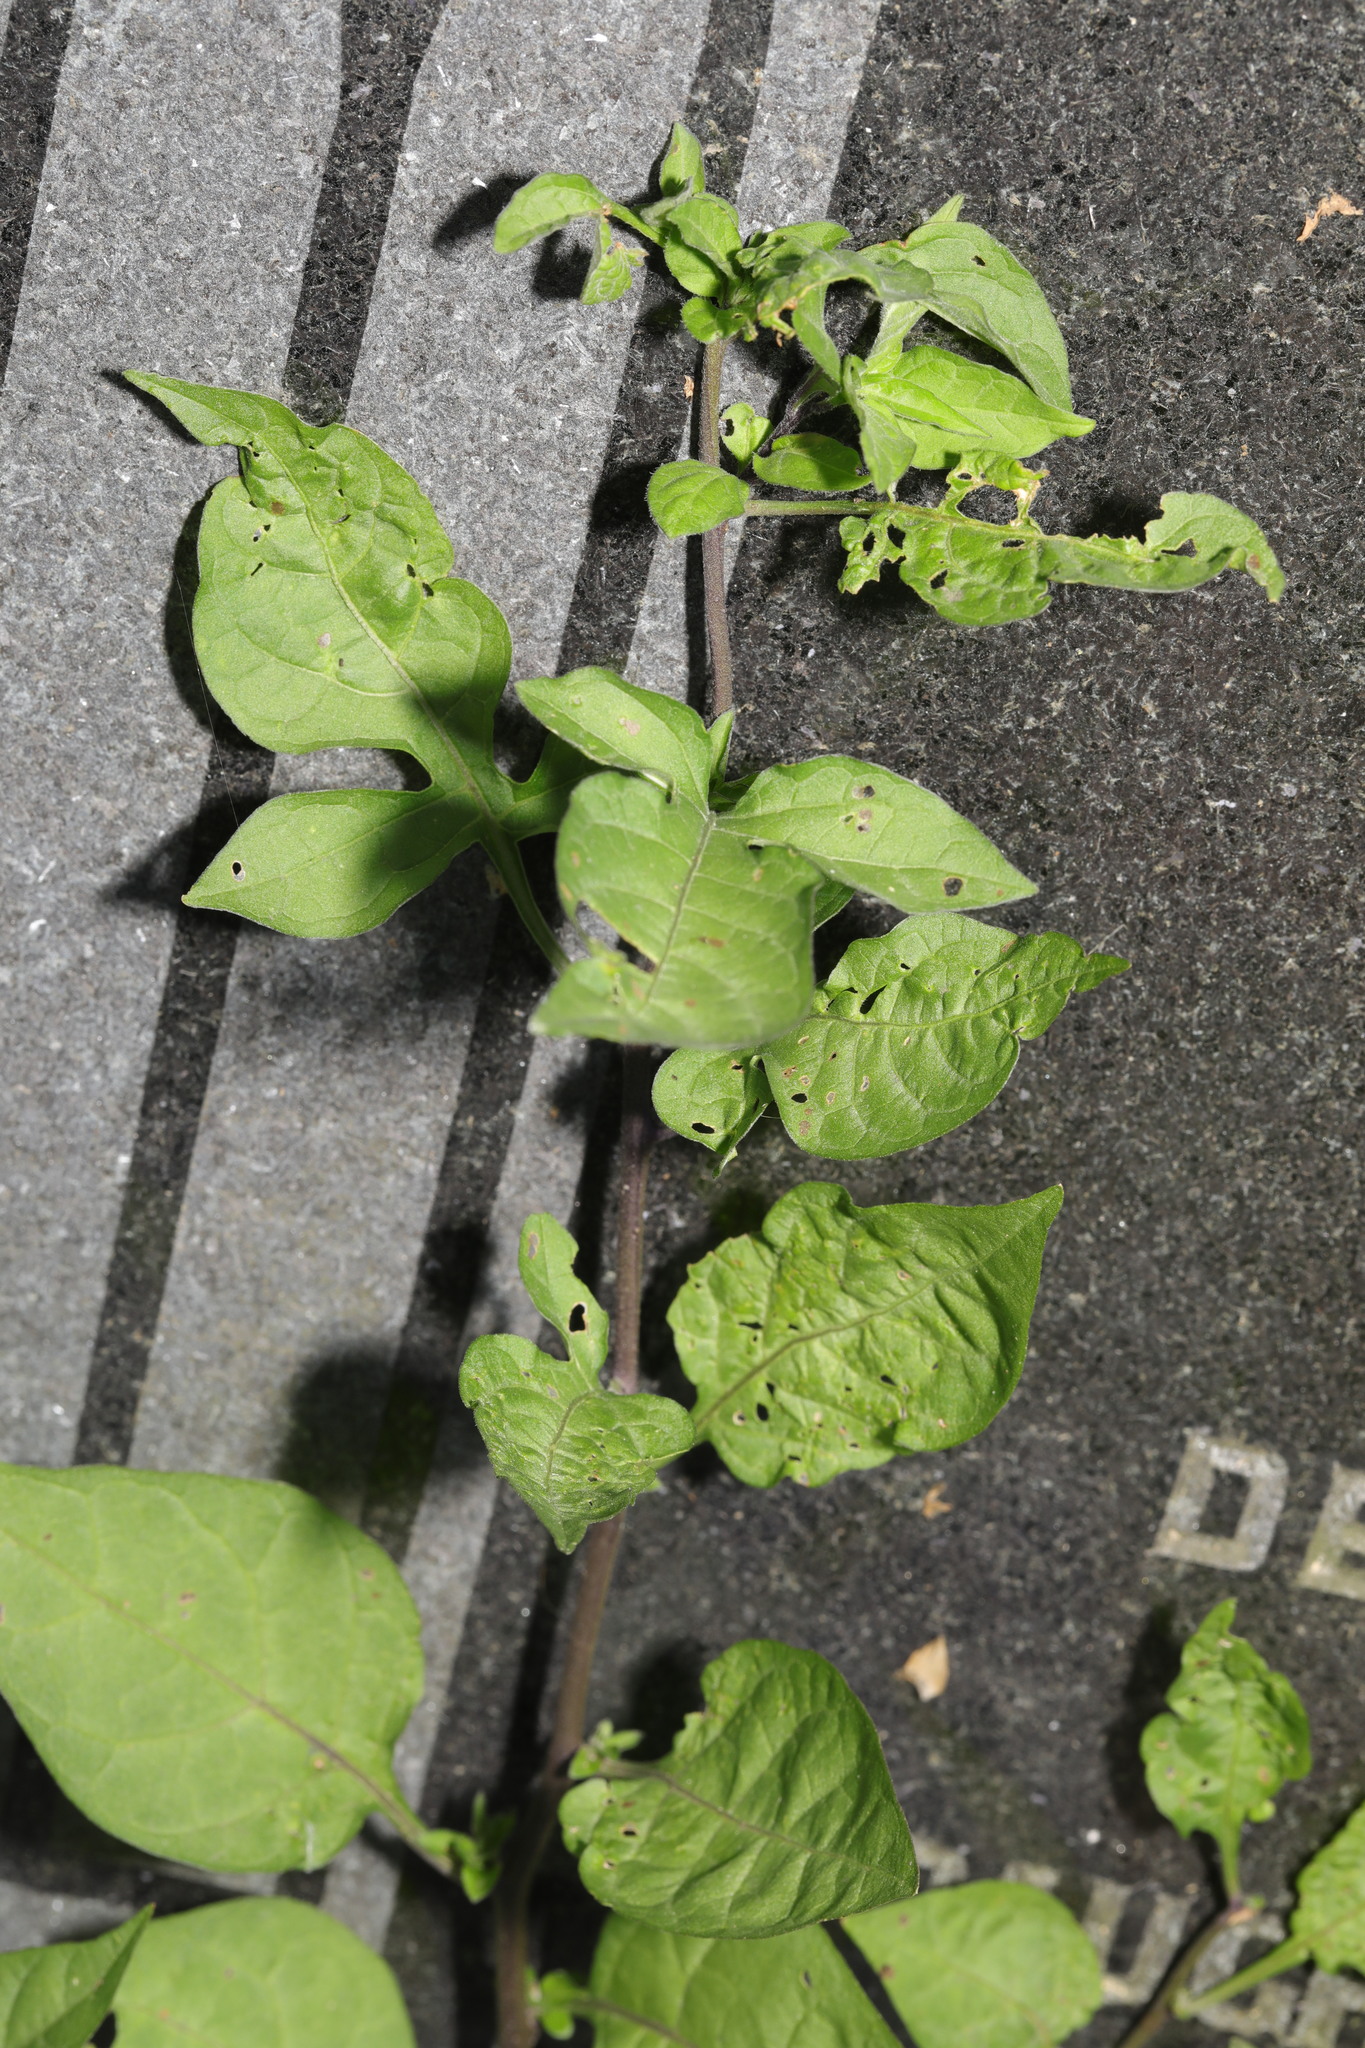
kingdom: Plantae
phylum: Tracheophyta
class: Magnoliopsida
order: Solanales
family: Solanaceae
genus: Solanum
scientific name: Solanum dulcamara
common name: Climbing nightshade
